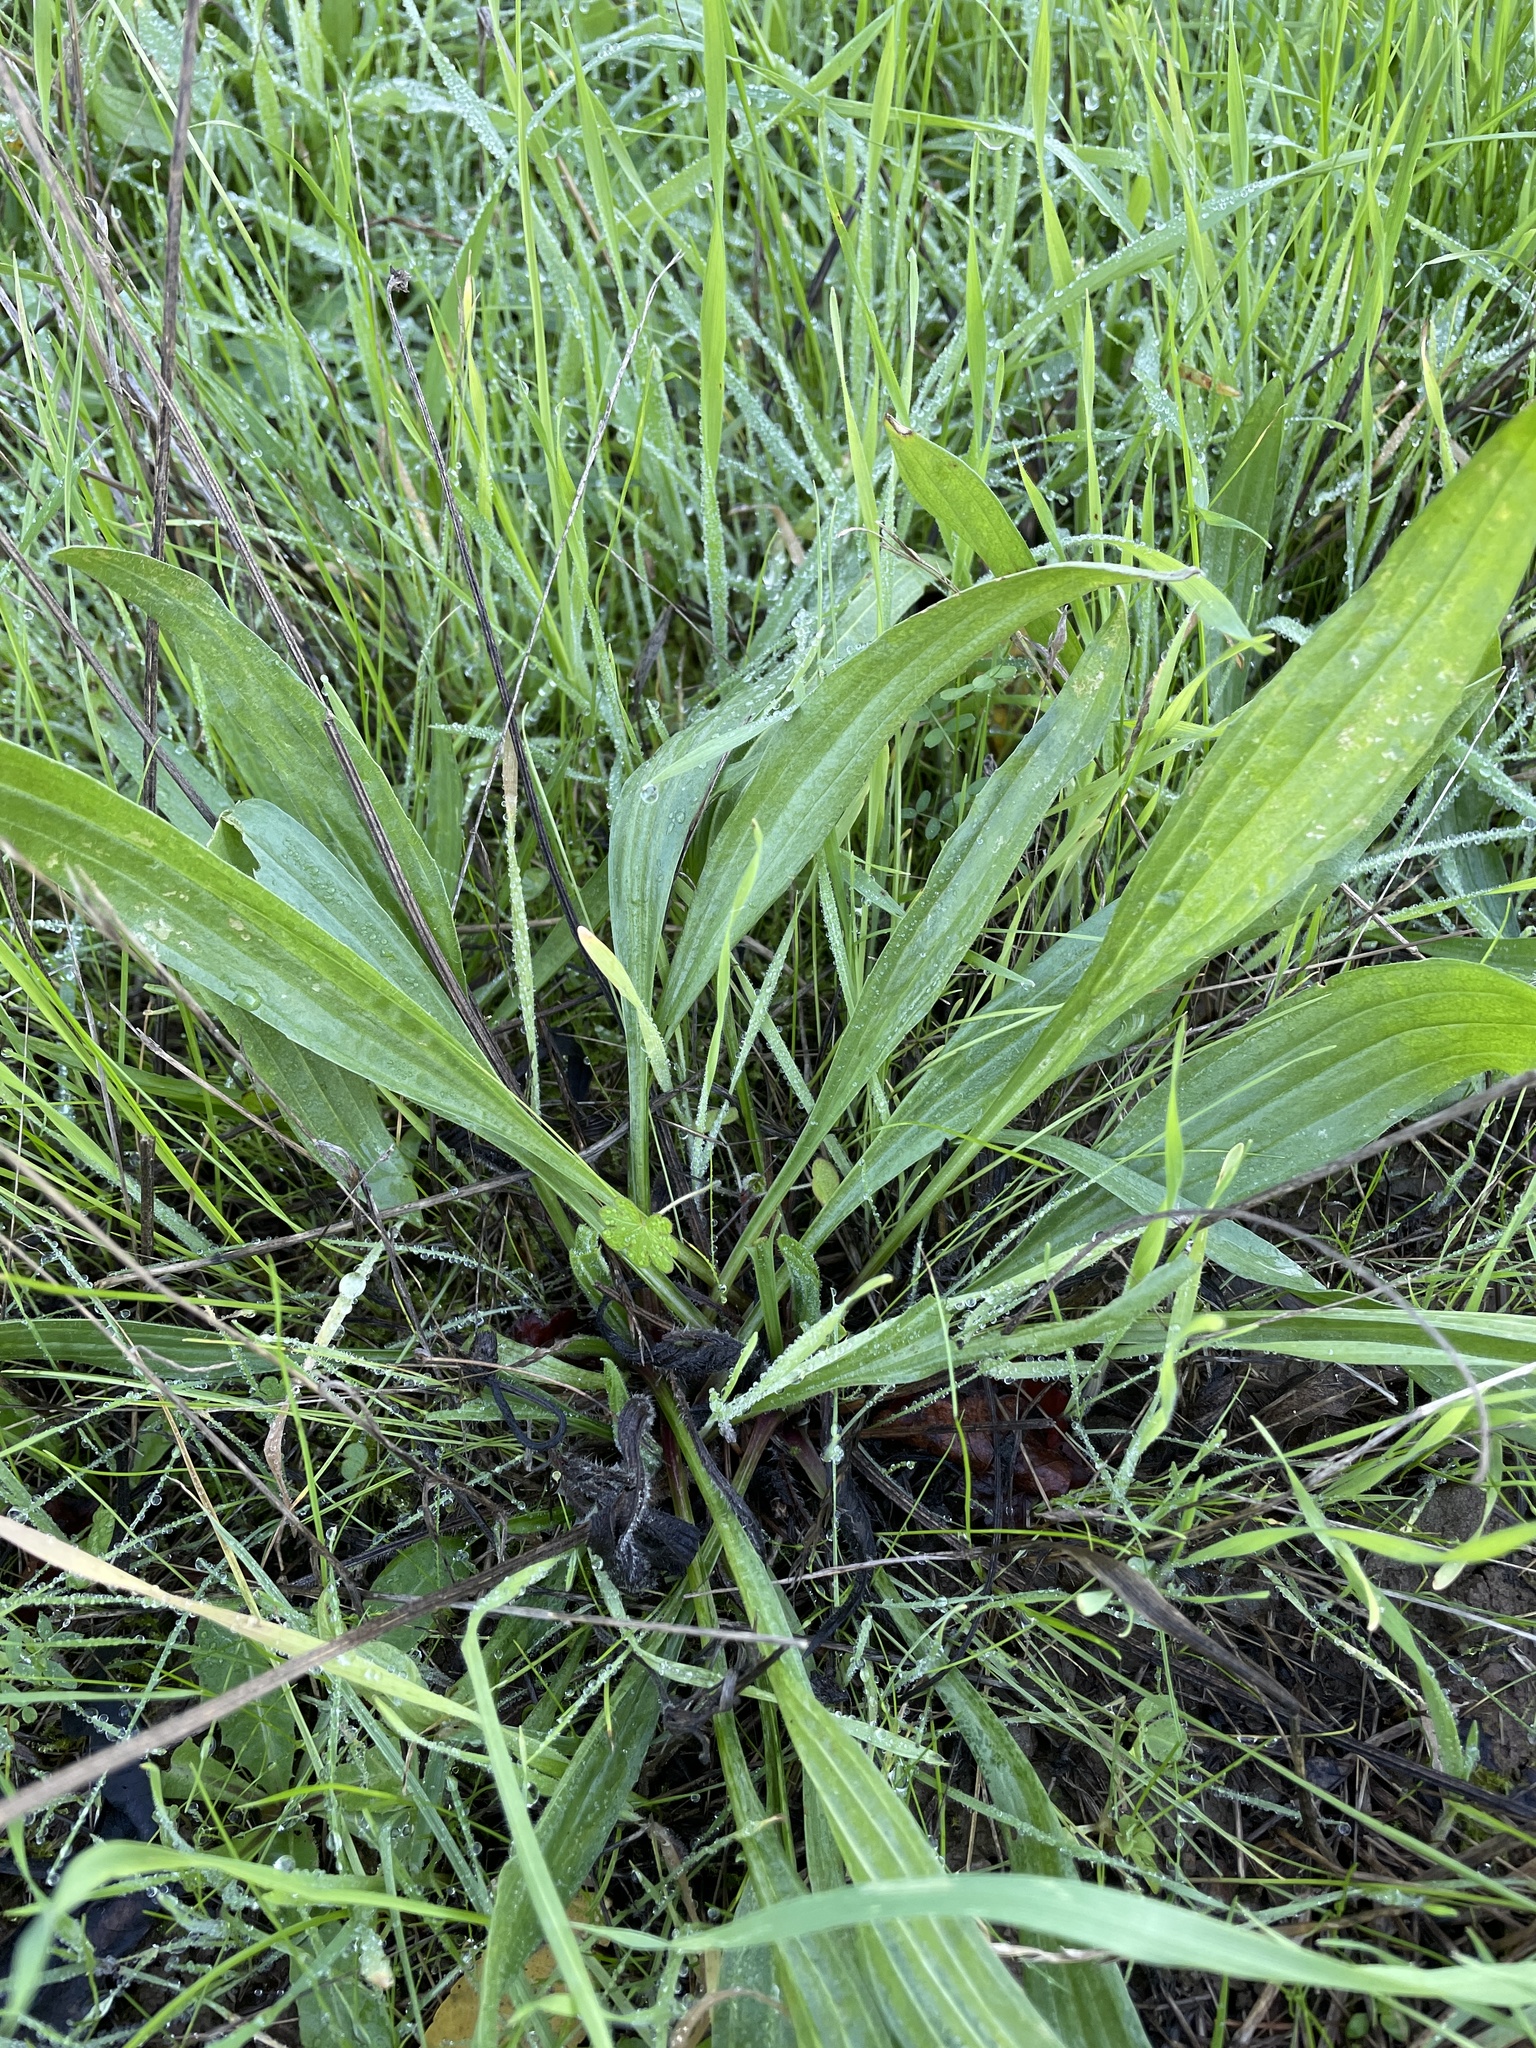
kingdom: Plantae
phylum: Tracheophyta
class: Magnoliopsida
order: Lamiales
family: Plantaginaceae
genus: Plantago
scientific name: Plantago lanceolata
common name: Ribwort plantain
